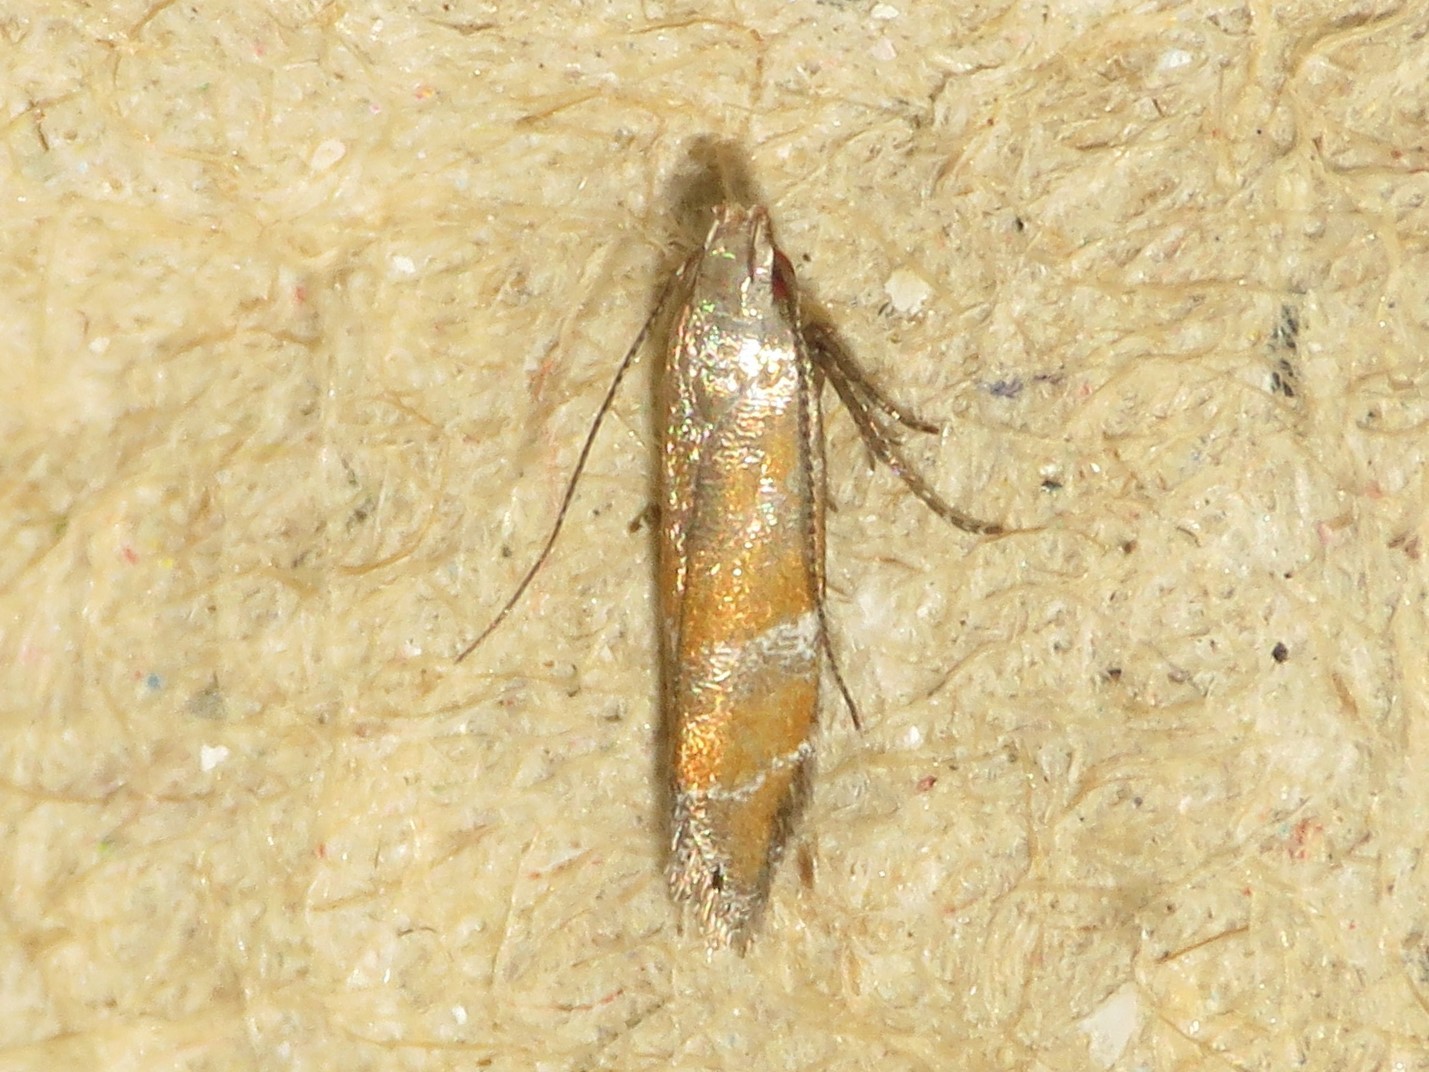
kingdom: Animalia
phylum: Arthropoda
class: Insecta
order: Lepidoptera
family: Gelechiidae
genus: Battaristis
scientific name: Battaristis vittella
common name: Orange stripe-backed moth
